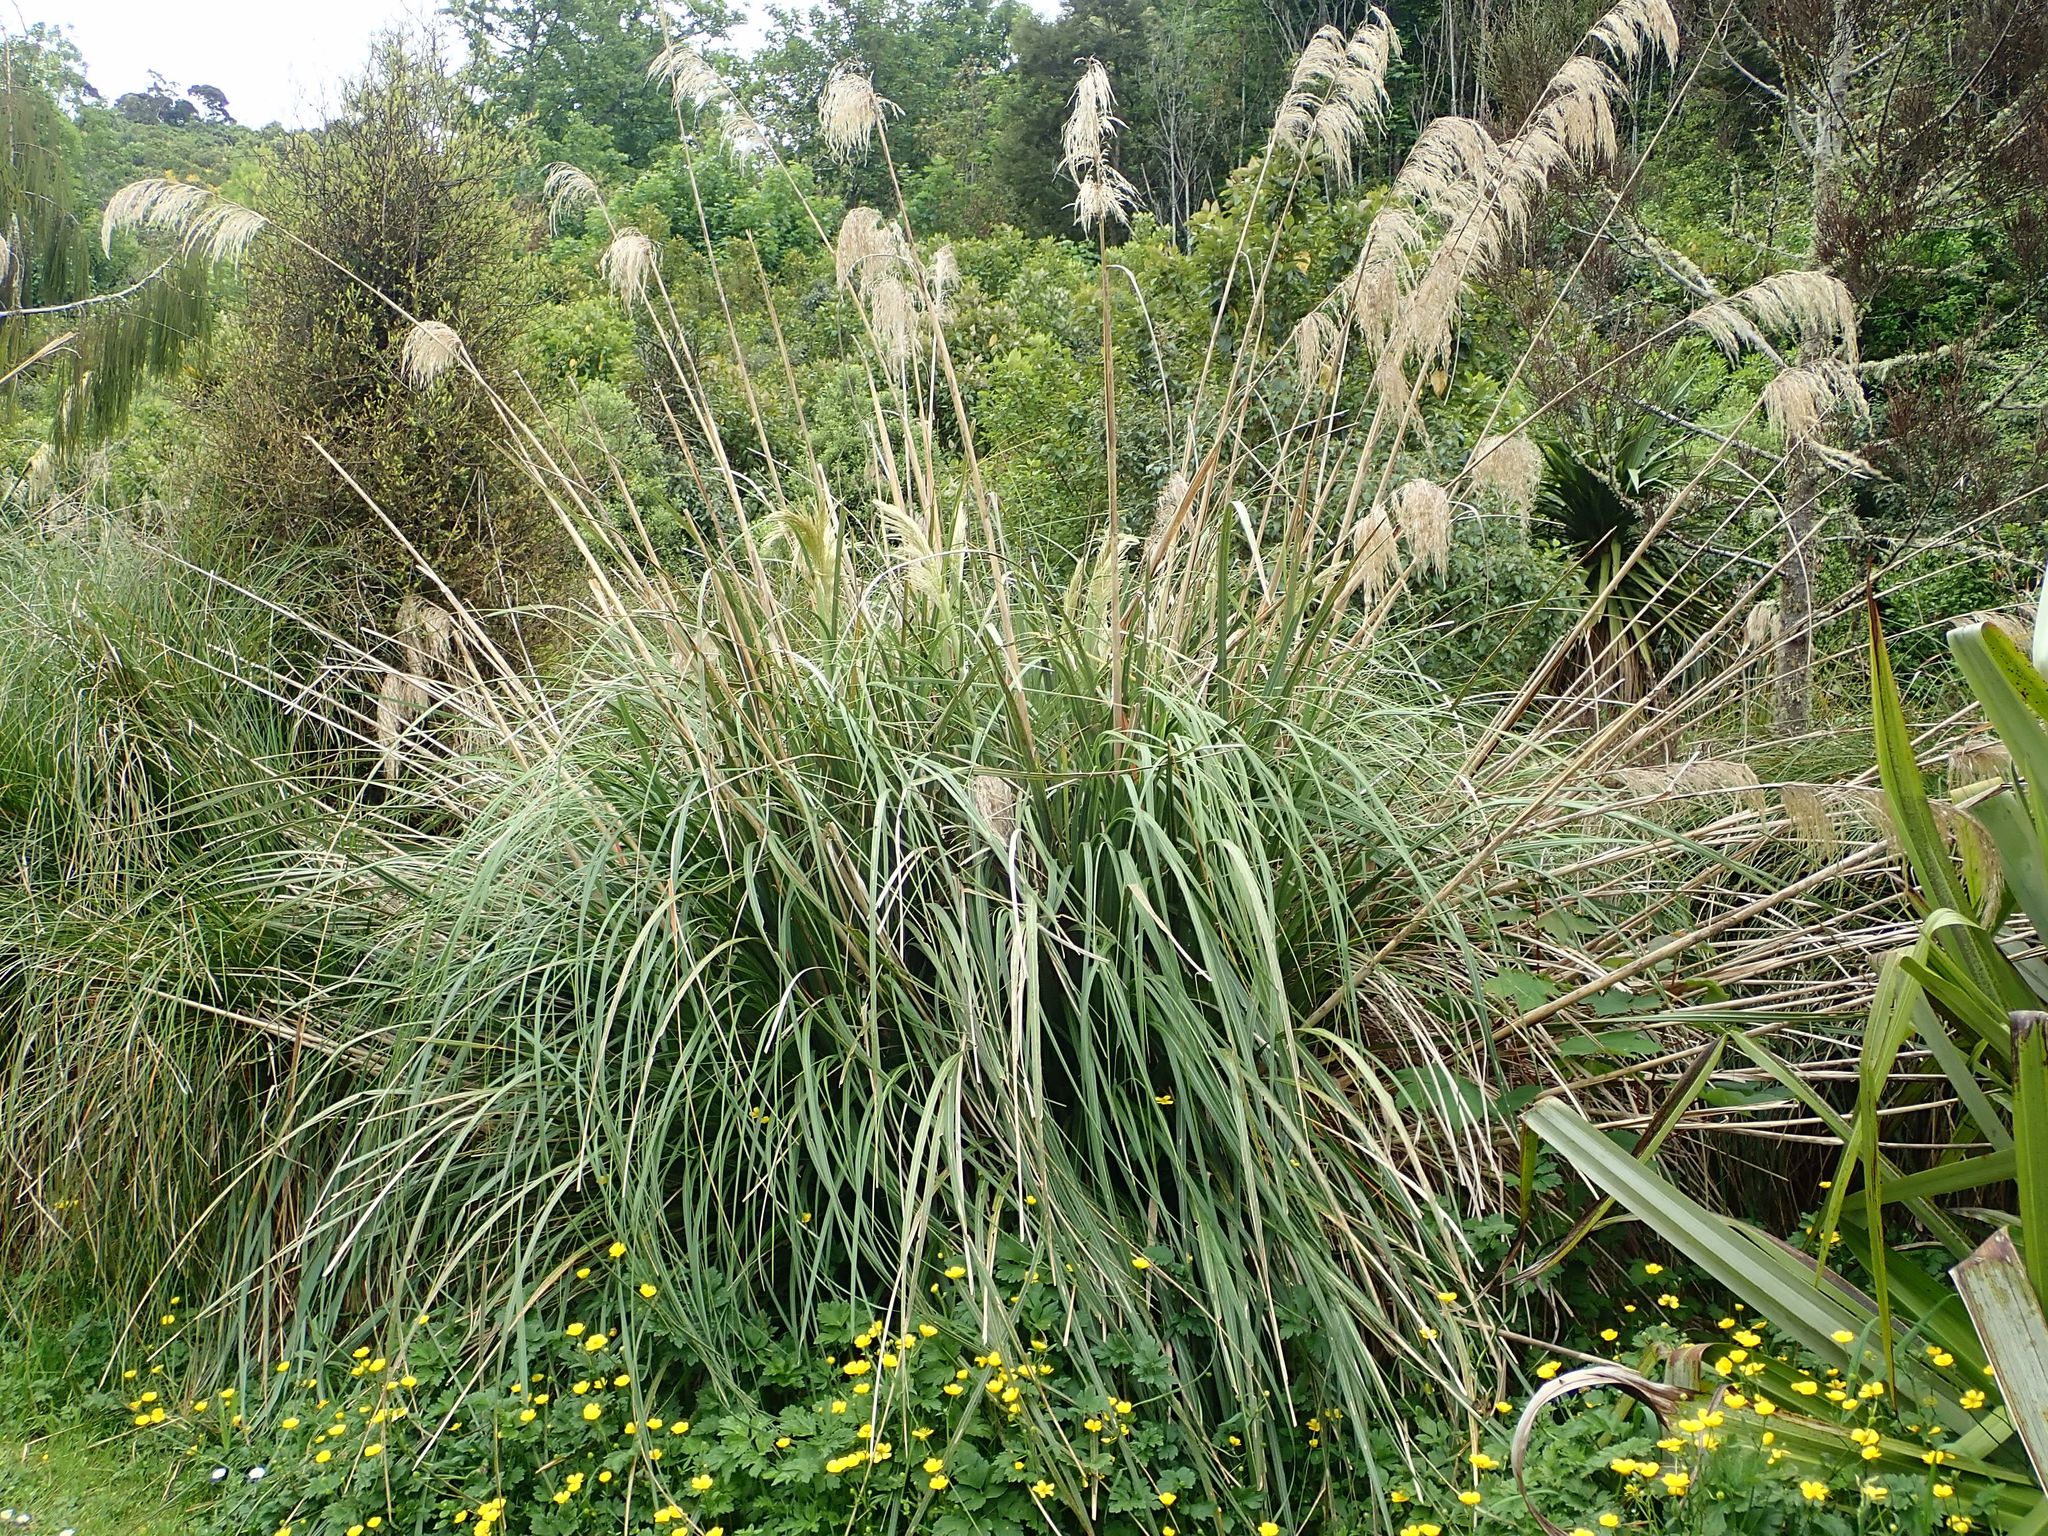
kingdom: Plantae
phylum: Tracheophyta
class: Liliopsida
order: Poales
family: Poaceae
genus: Austroderia
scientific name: Austroderia richardii
